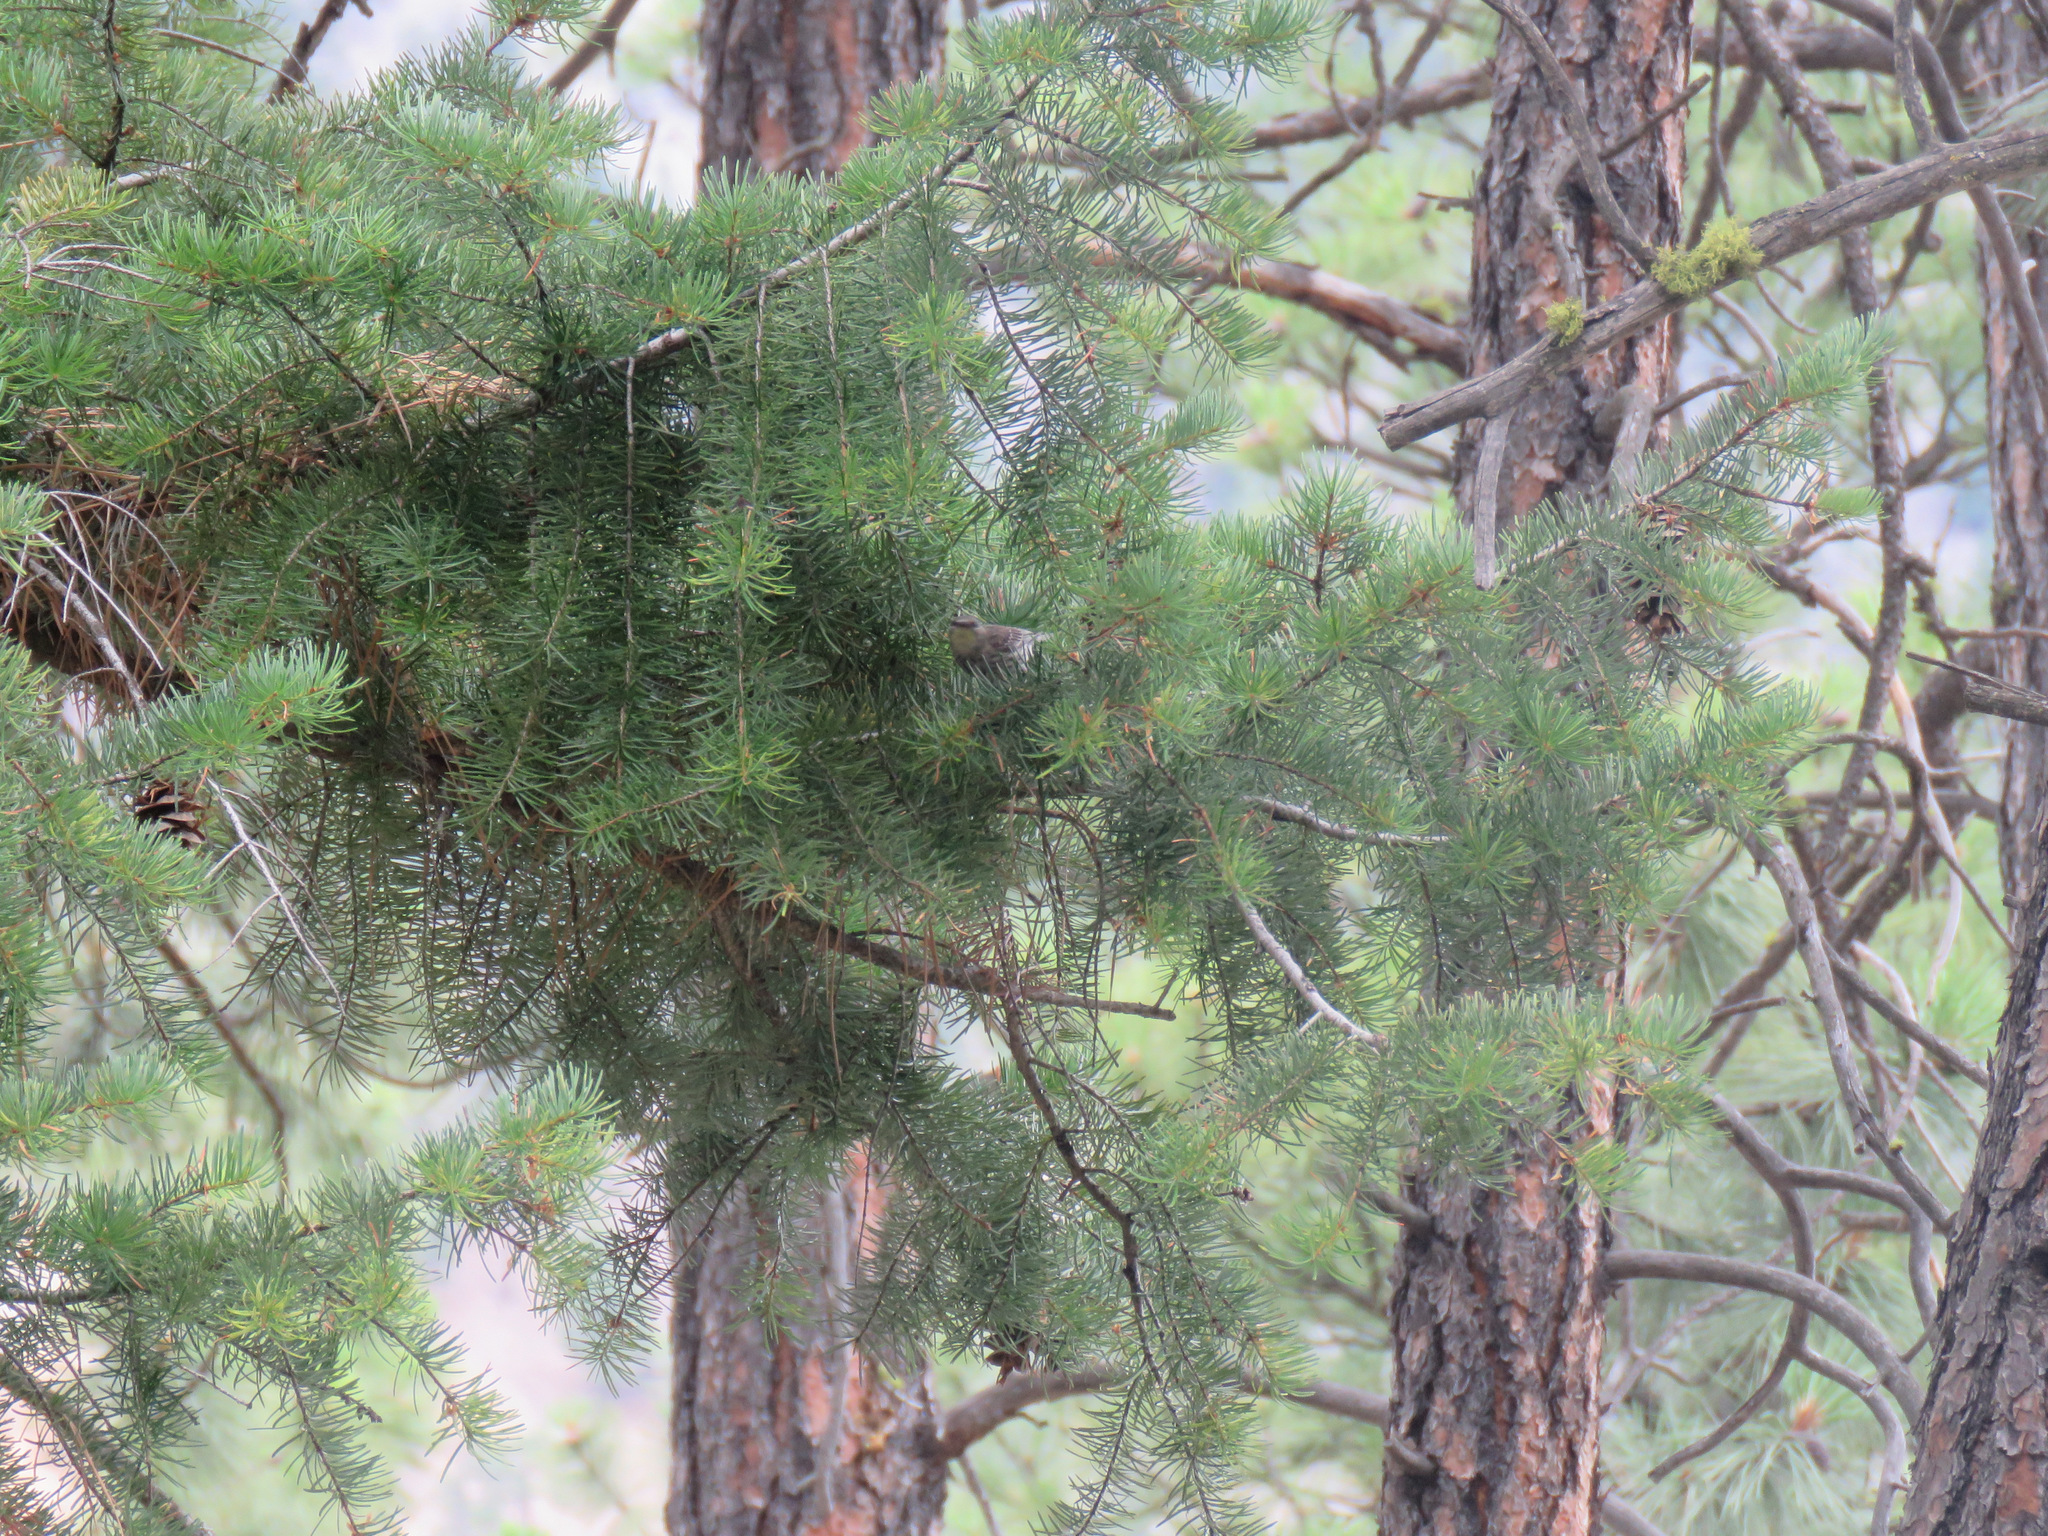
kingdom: Animalia
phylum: Chordata
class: Aves
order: Passeriformes
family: Parulidae
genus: Setophaga
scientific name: Setophaga auduboni
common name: Audubon's warbler
